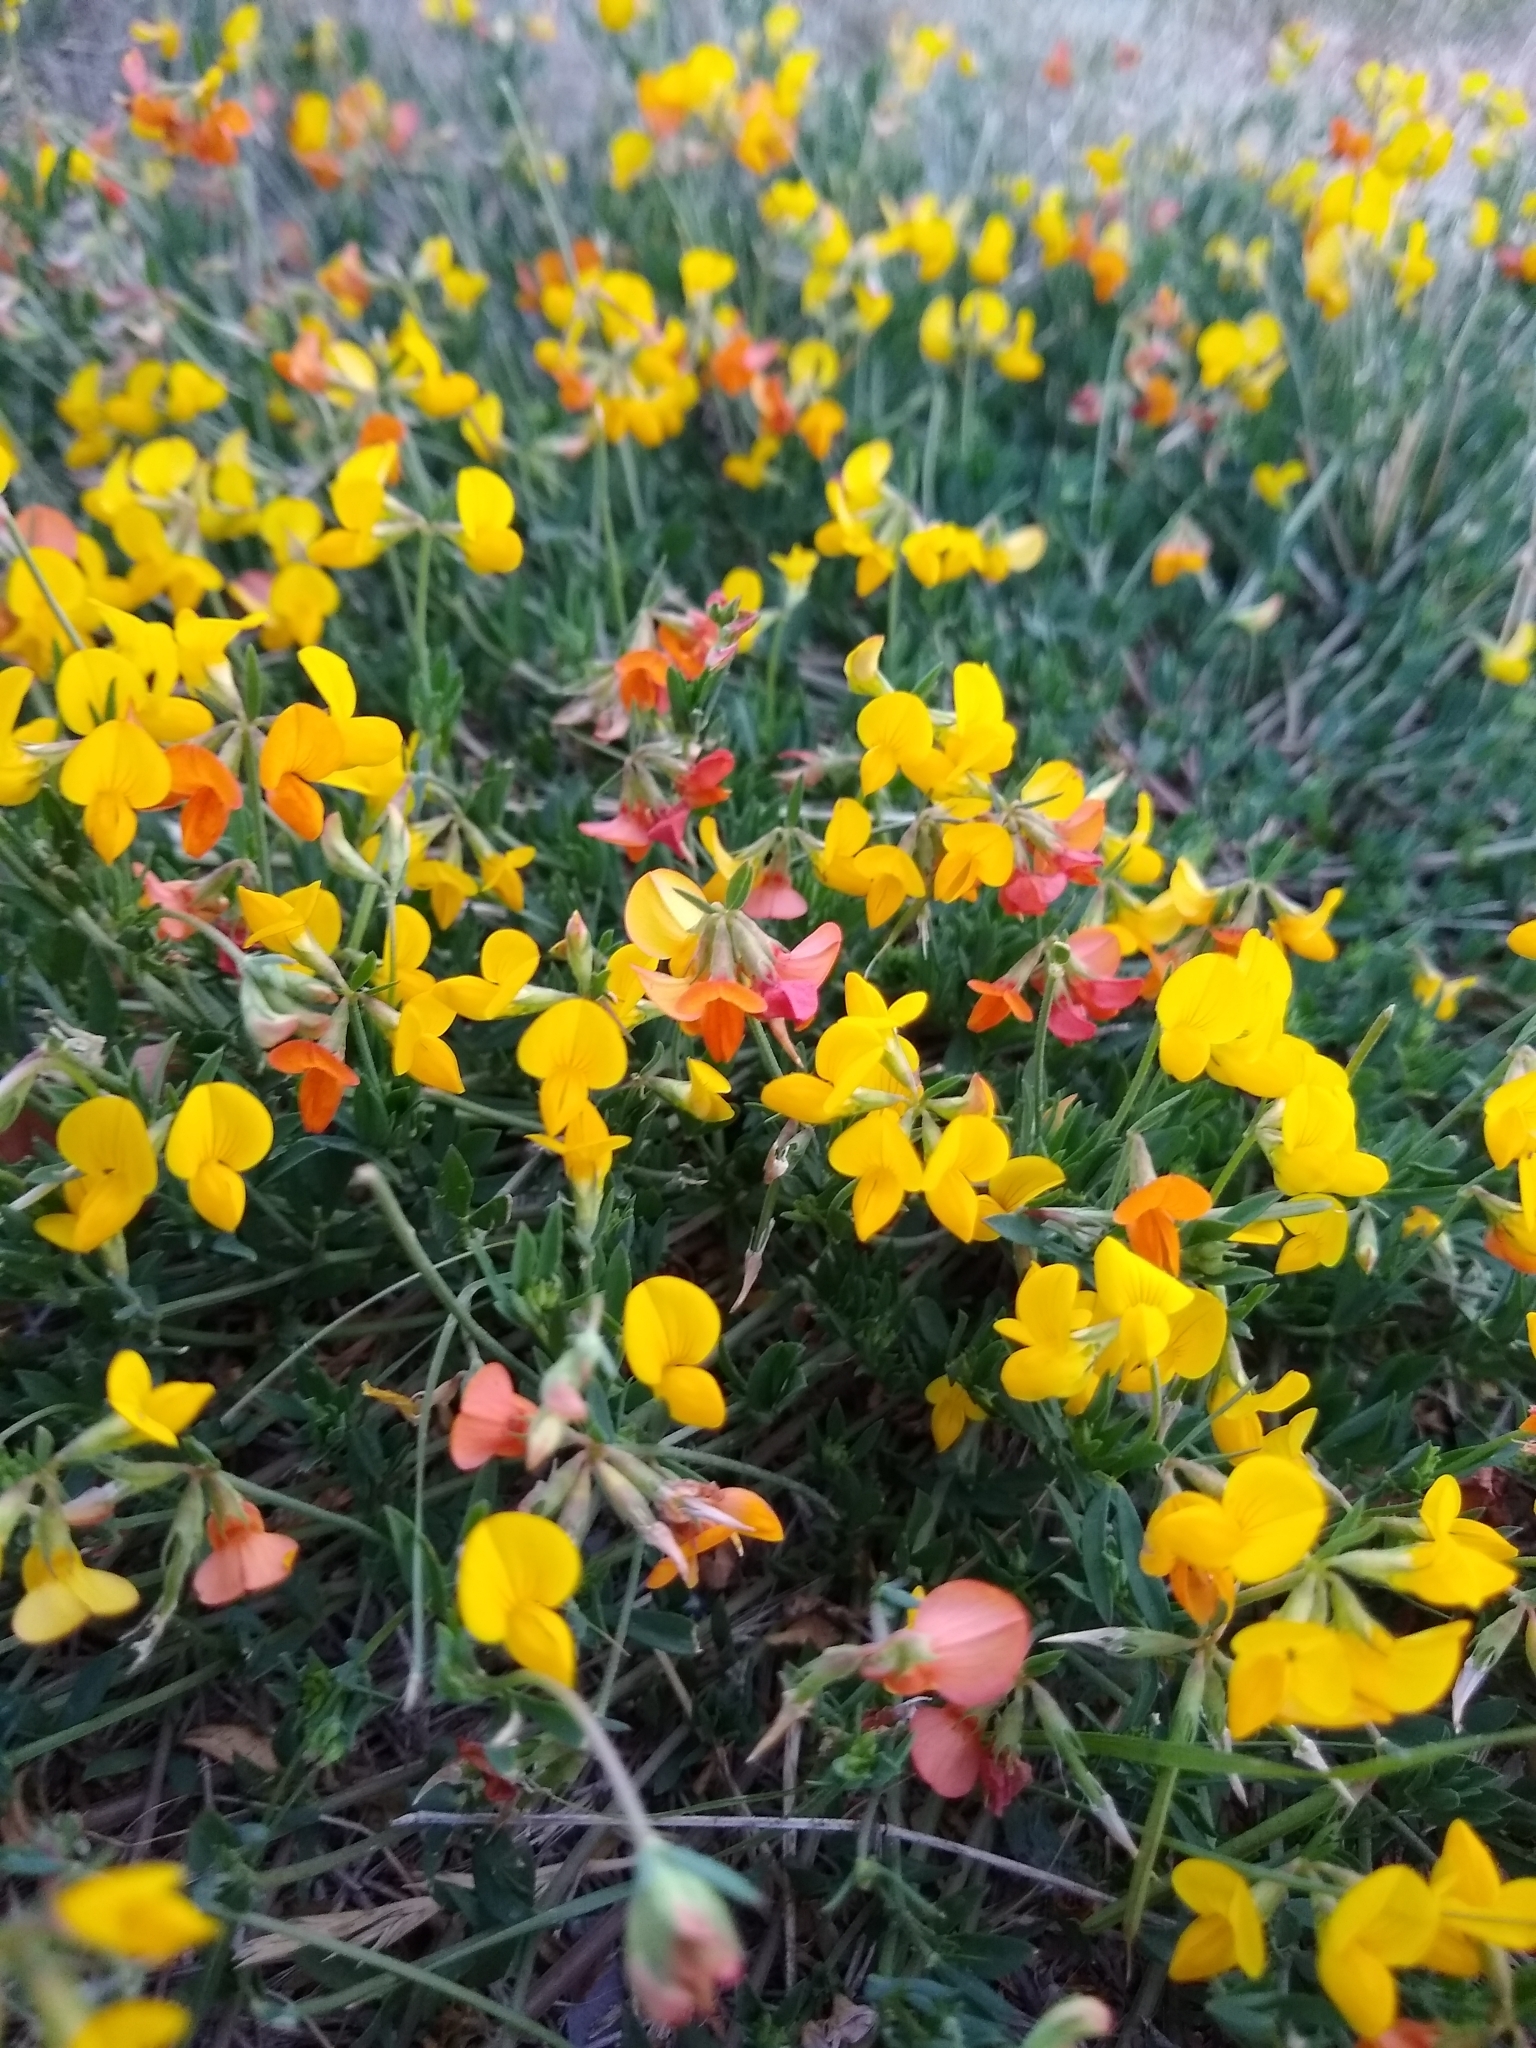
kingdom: Plantae
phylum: Tracheophyta
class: Magnoliopsida
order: Fabales
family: Fabaceae
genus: Lotus
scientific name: Lotus corniculatus
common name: Common bird's-foot-trefoil
